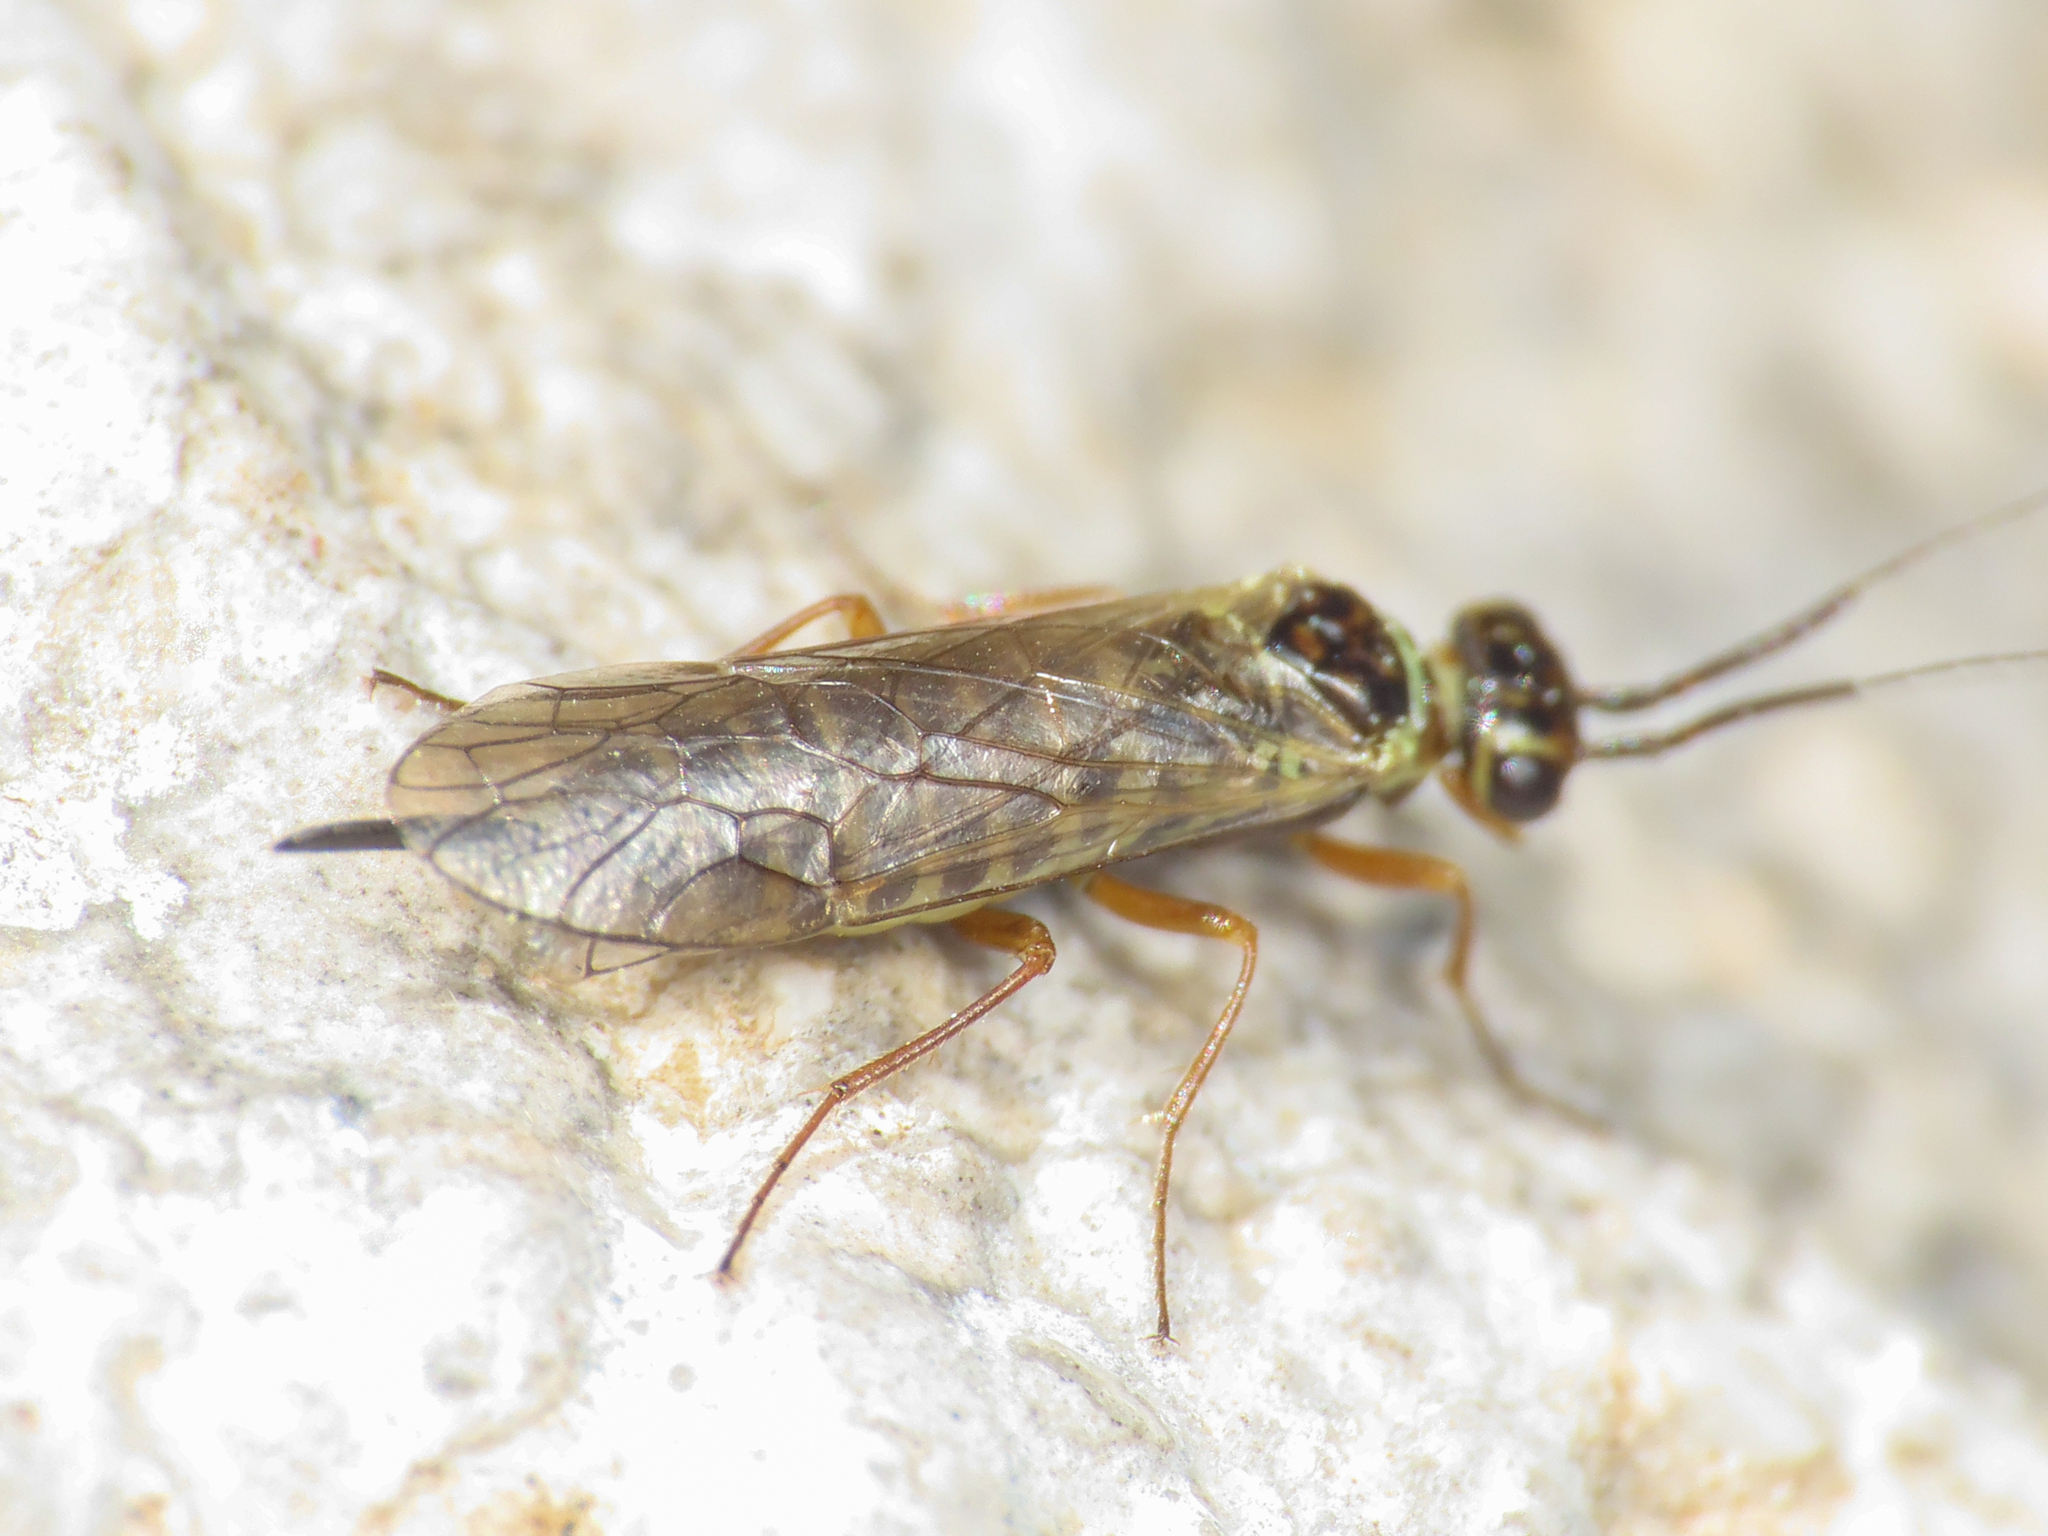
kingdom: Animalia
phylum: Arthropoda
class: Insecta
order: Hymenoptera
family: Xyelidae
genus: Xyela
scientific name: Xyela curva
